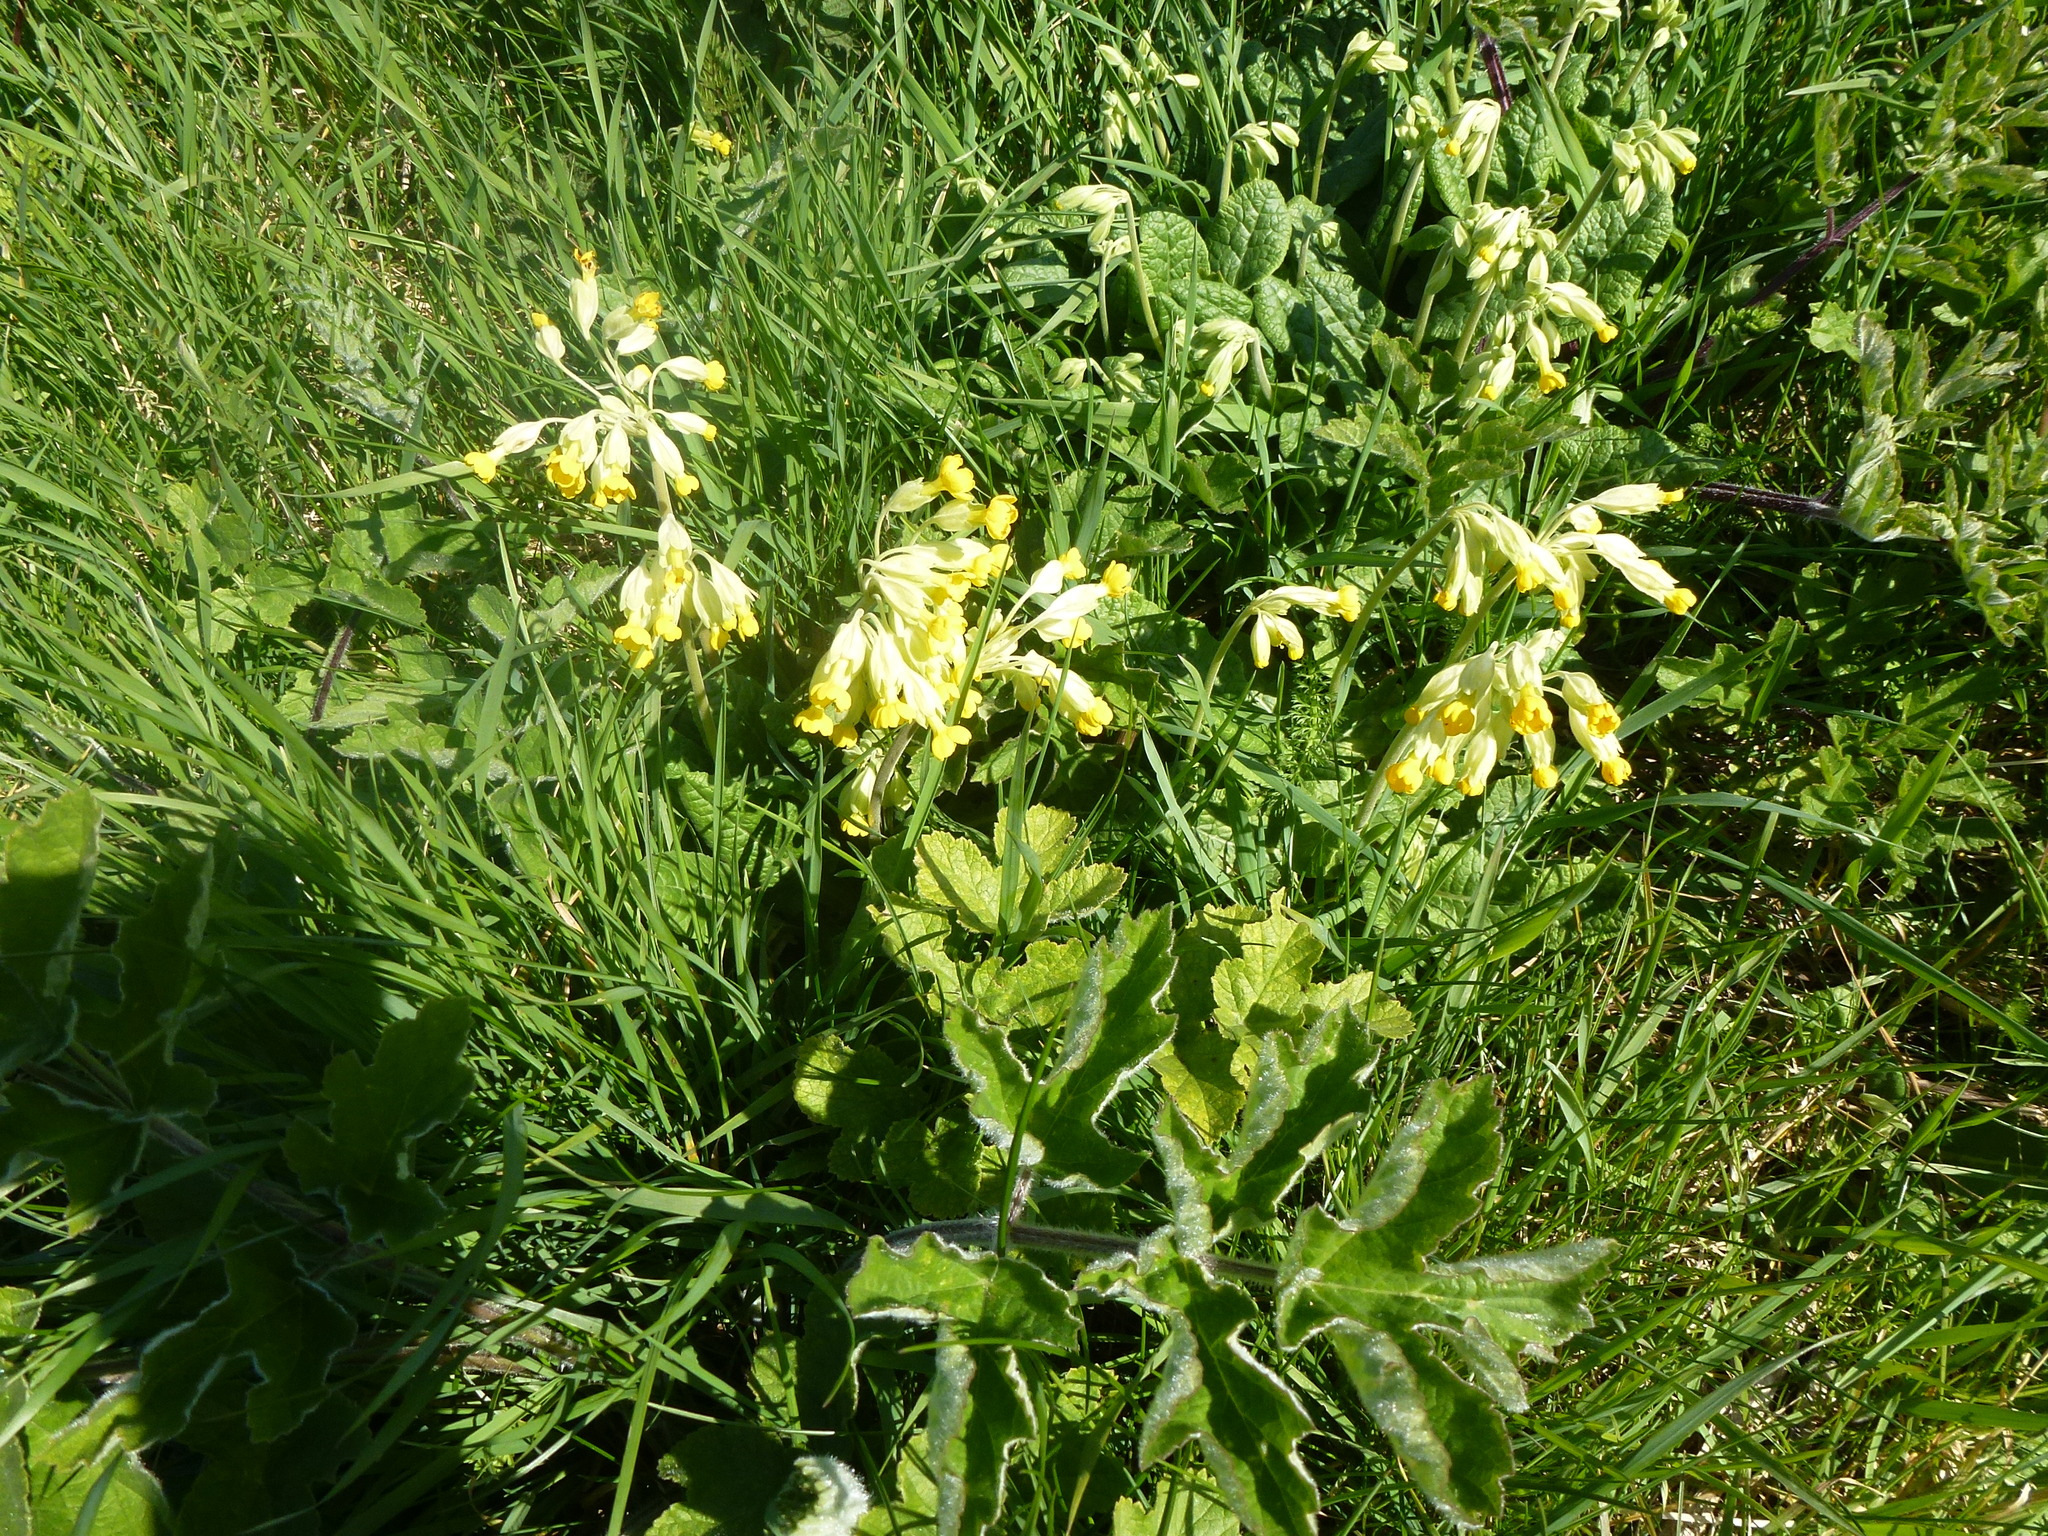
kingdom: Plantae
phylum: Tracheophyta
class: Magnoliopsida
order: Ericales
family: Primulaceae
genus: Primula
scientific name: Primula veris
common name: Cowslip
